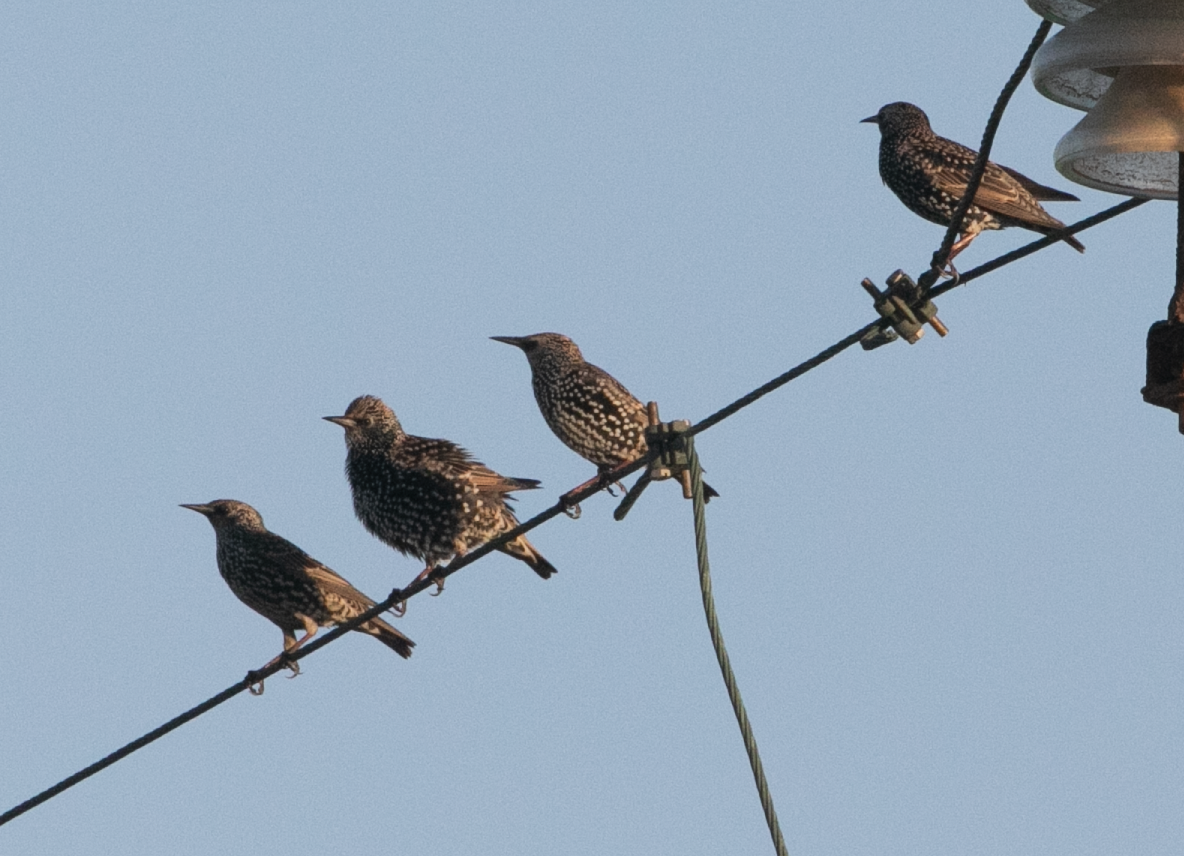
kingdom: Animalia
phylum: Chordata
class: Aves
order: Passeriformes
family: Sturnidae
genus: Sturnus
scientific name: Sturnus vulgaris
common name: Common starling
